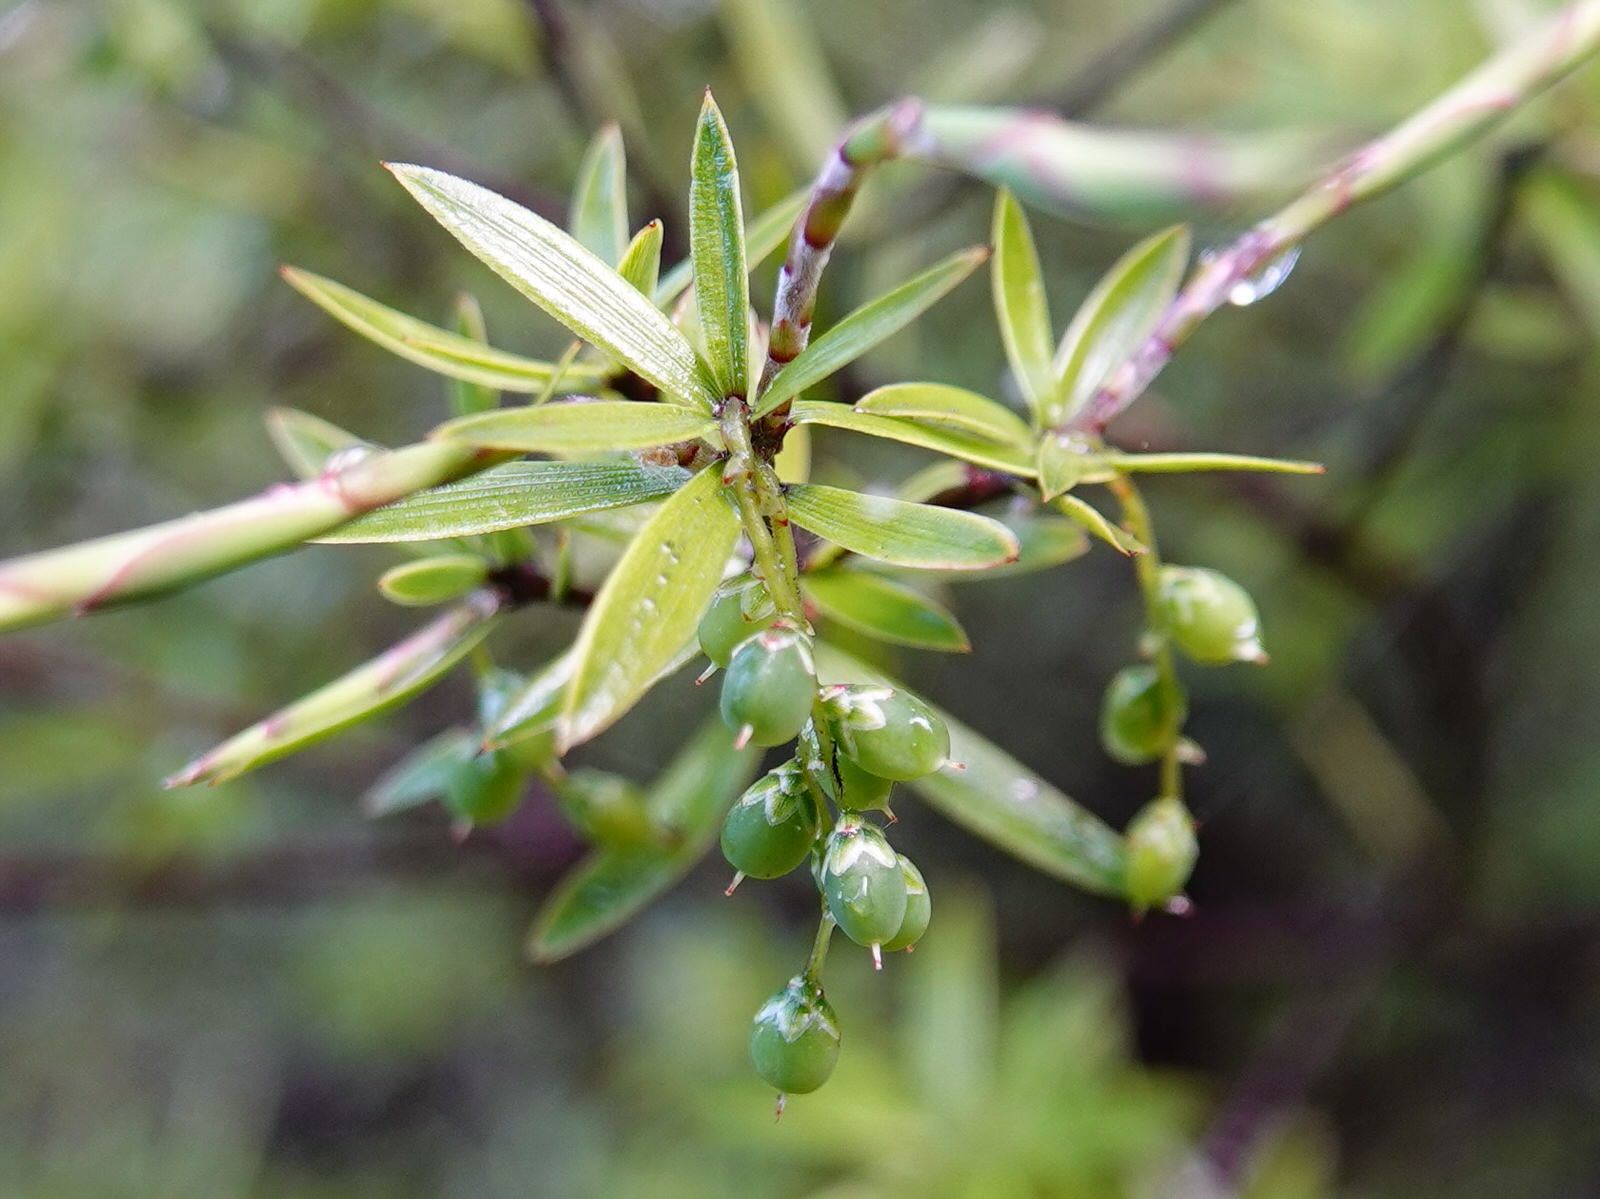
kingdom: Plantae
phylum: Tracheophyta
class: Magnoliopsida
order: Ericales
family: Ericaceae
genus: Leucopogon
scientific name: Leucopogon fasciculatus
